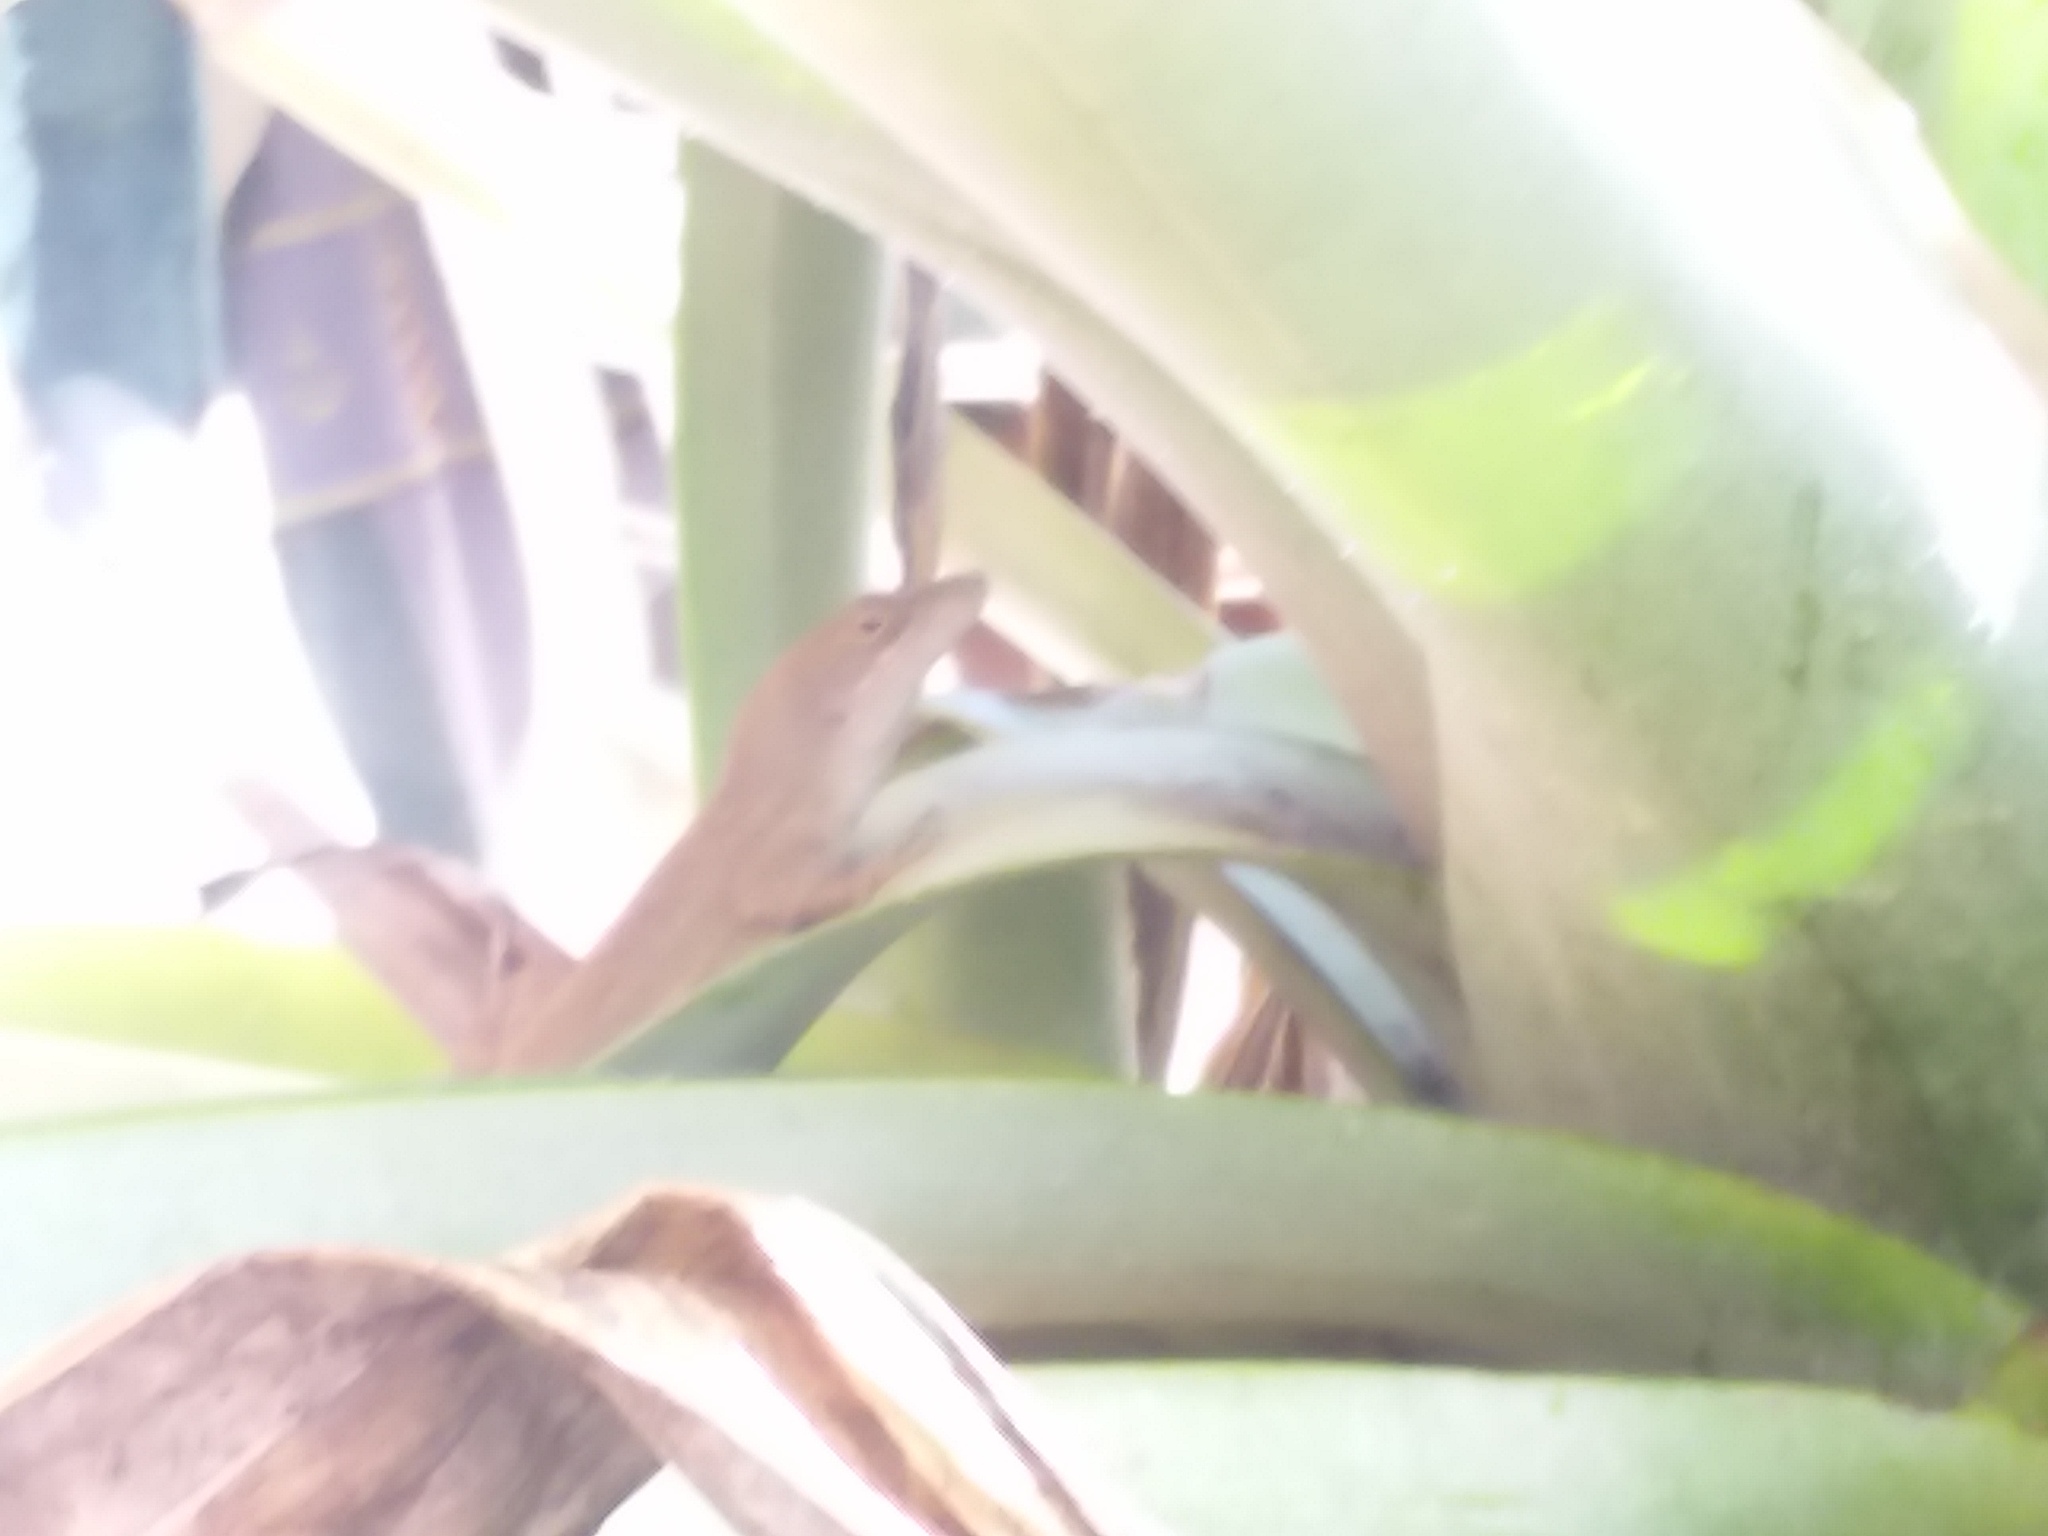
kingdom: Animalia
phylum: Chordata
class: Squamata
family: Dactyloidae
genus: Anolis
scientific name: Anolis sagrei
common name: Brown anole
